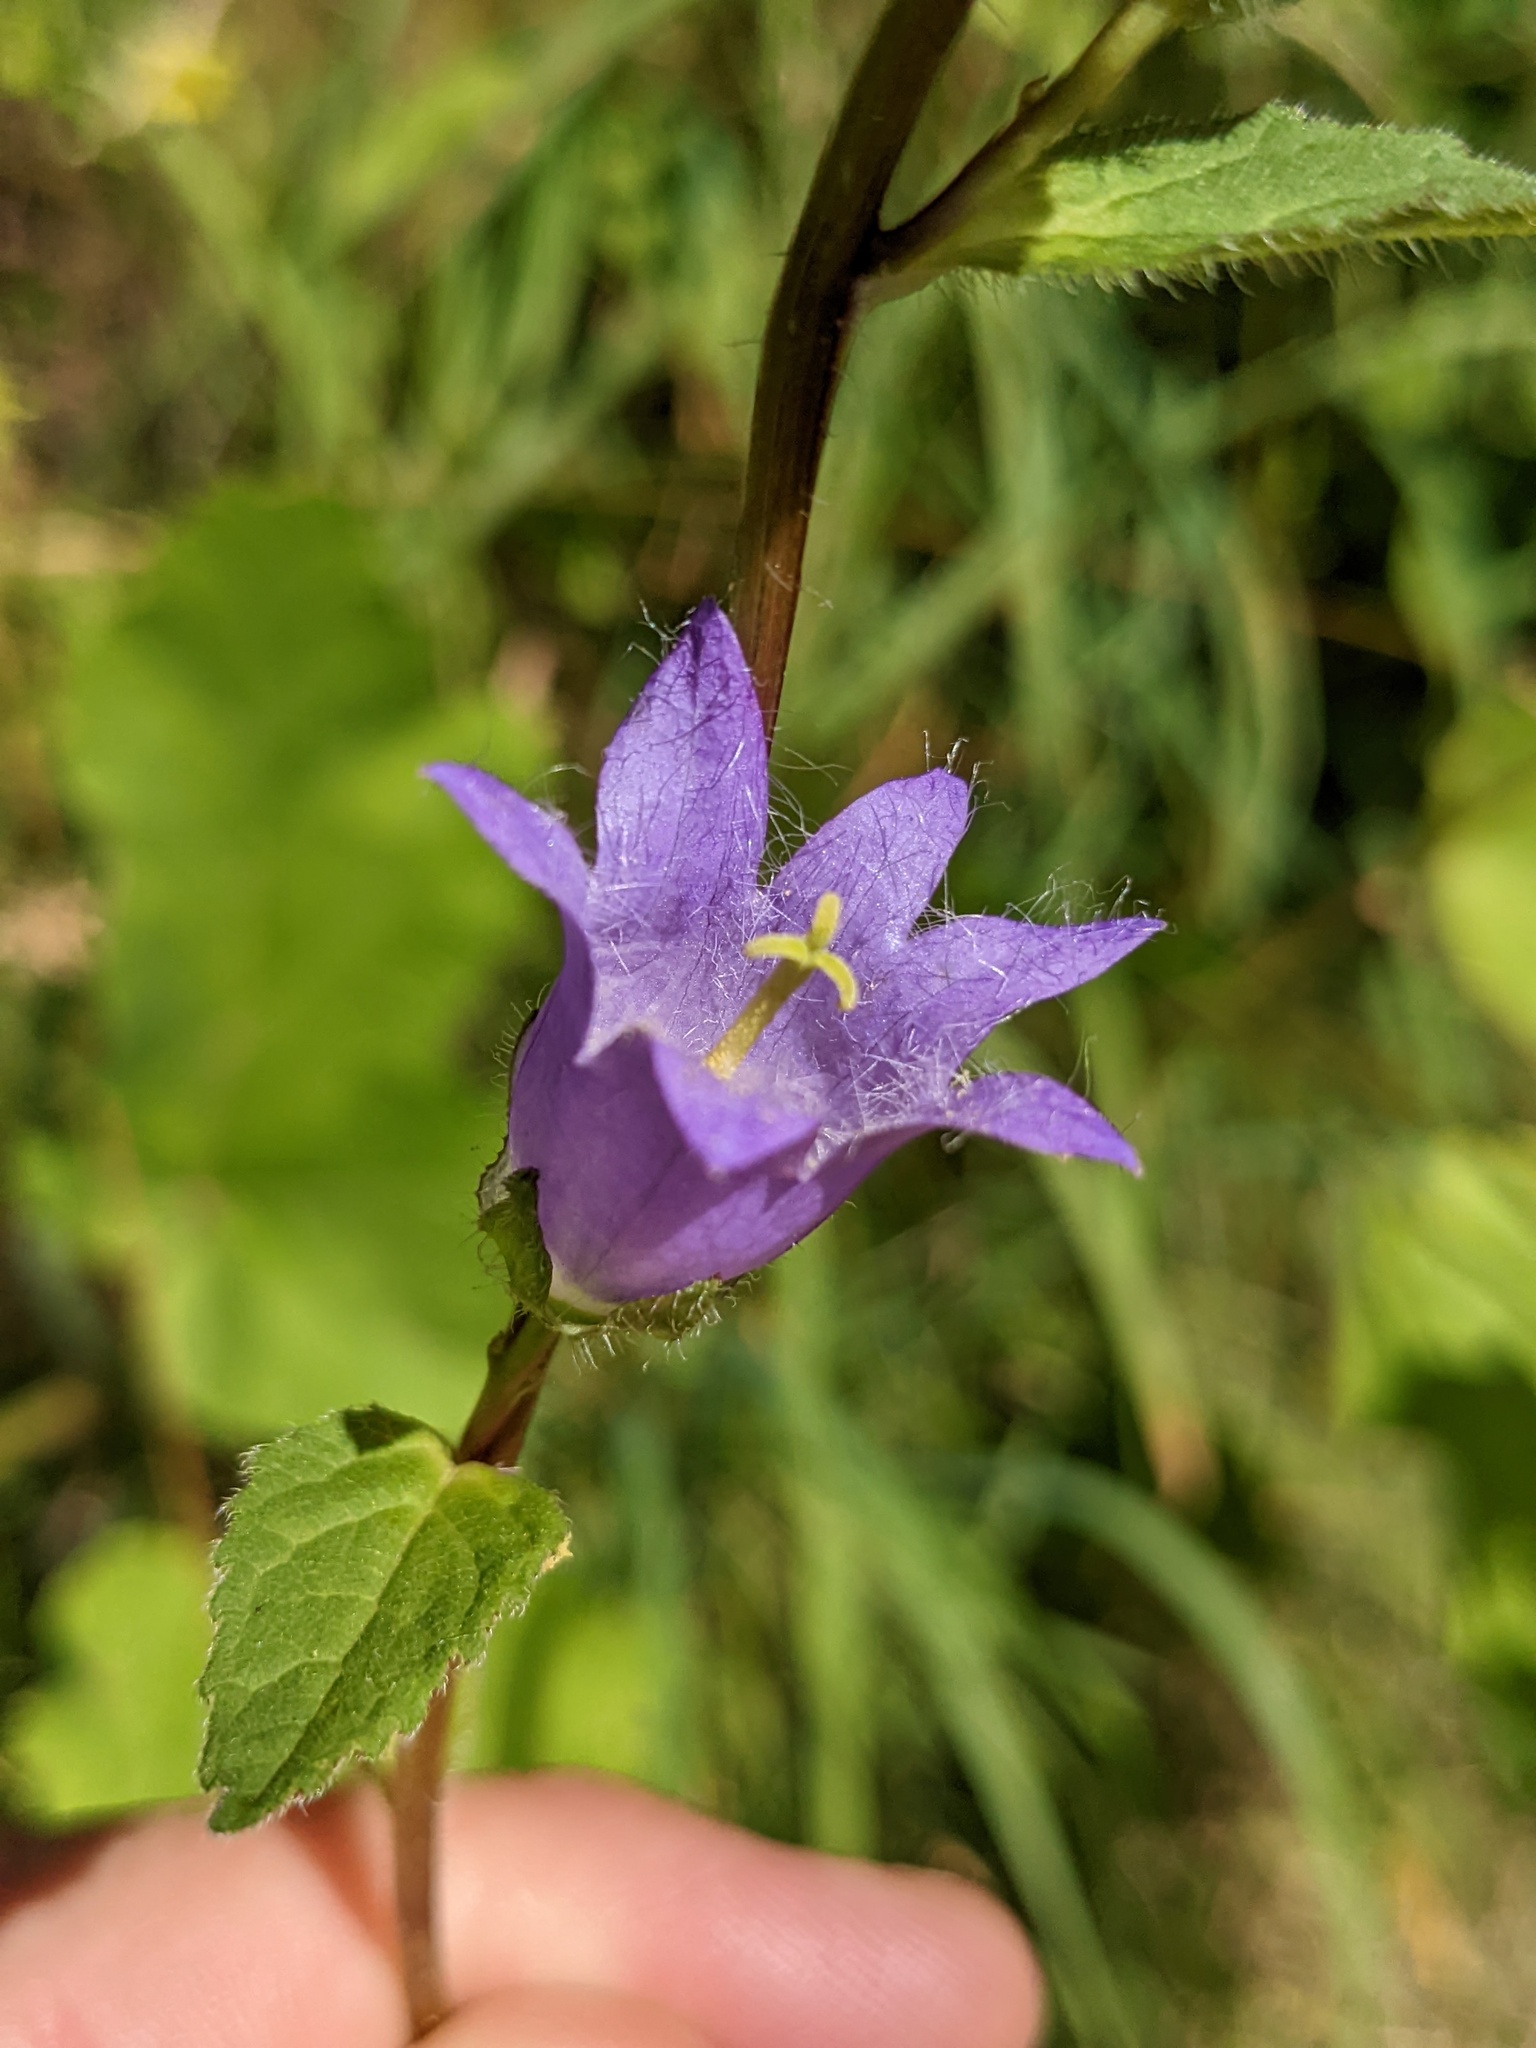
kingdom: Plantae
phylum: Tracheophyta
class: Magnoliopsida
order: Asterales
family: Campanulaceae
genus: Campanula
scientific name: Campanula trachelium
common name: Nettle-leaved bellflower
